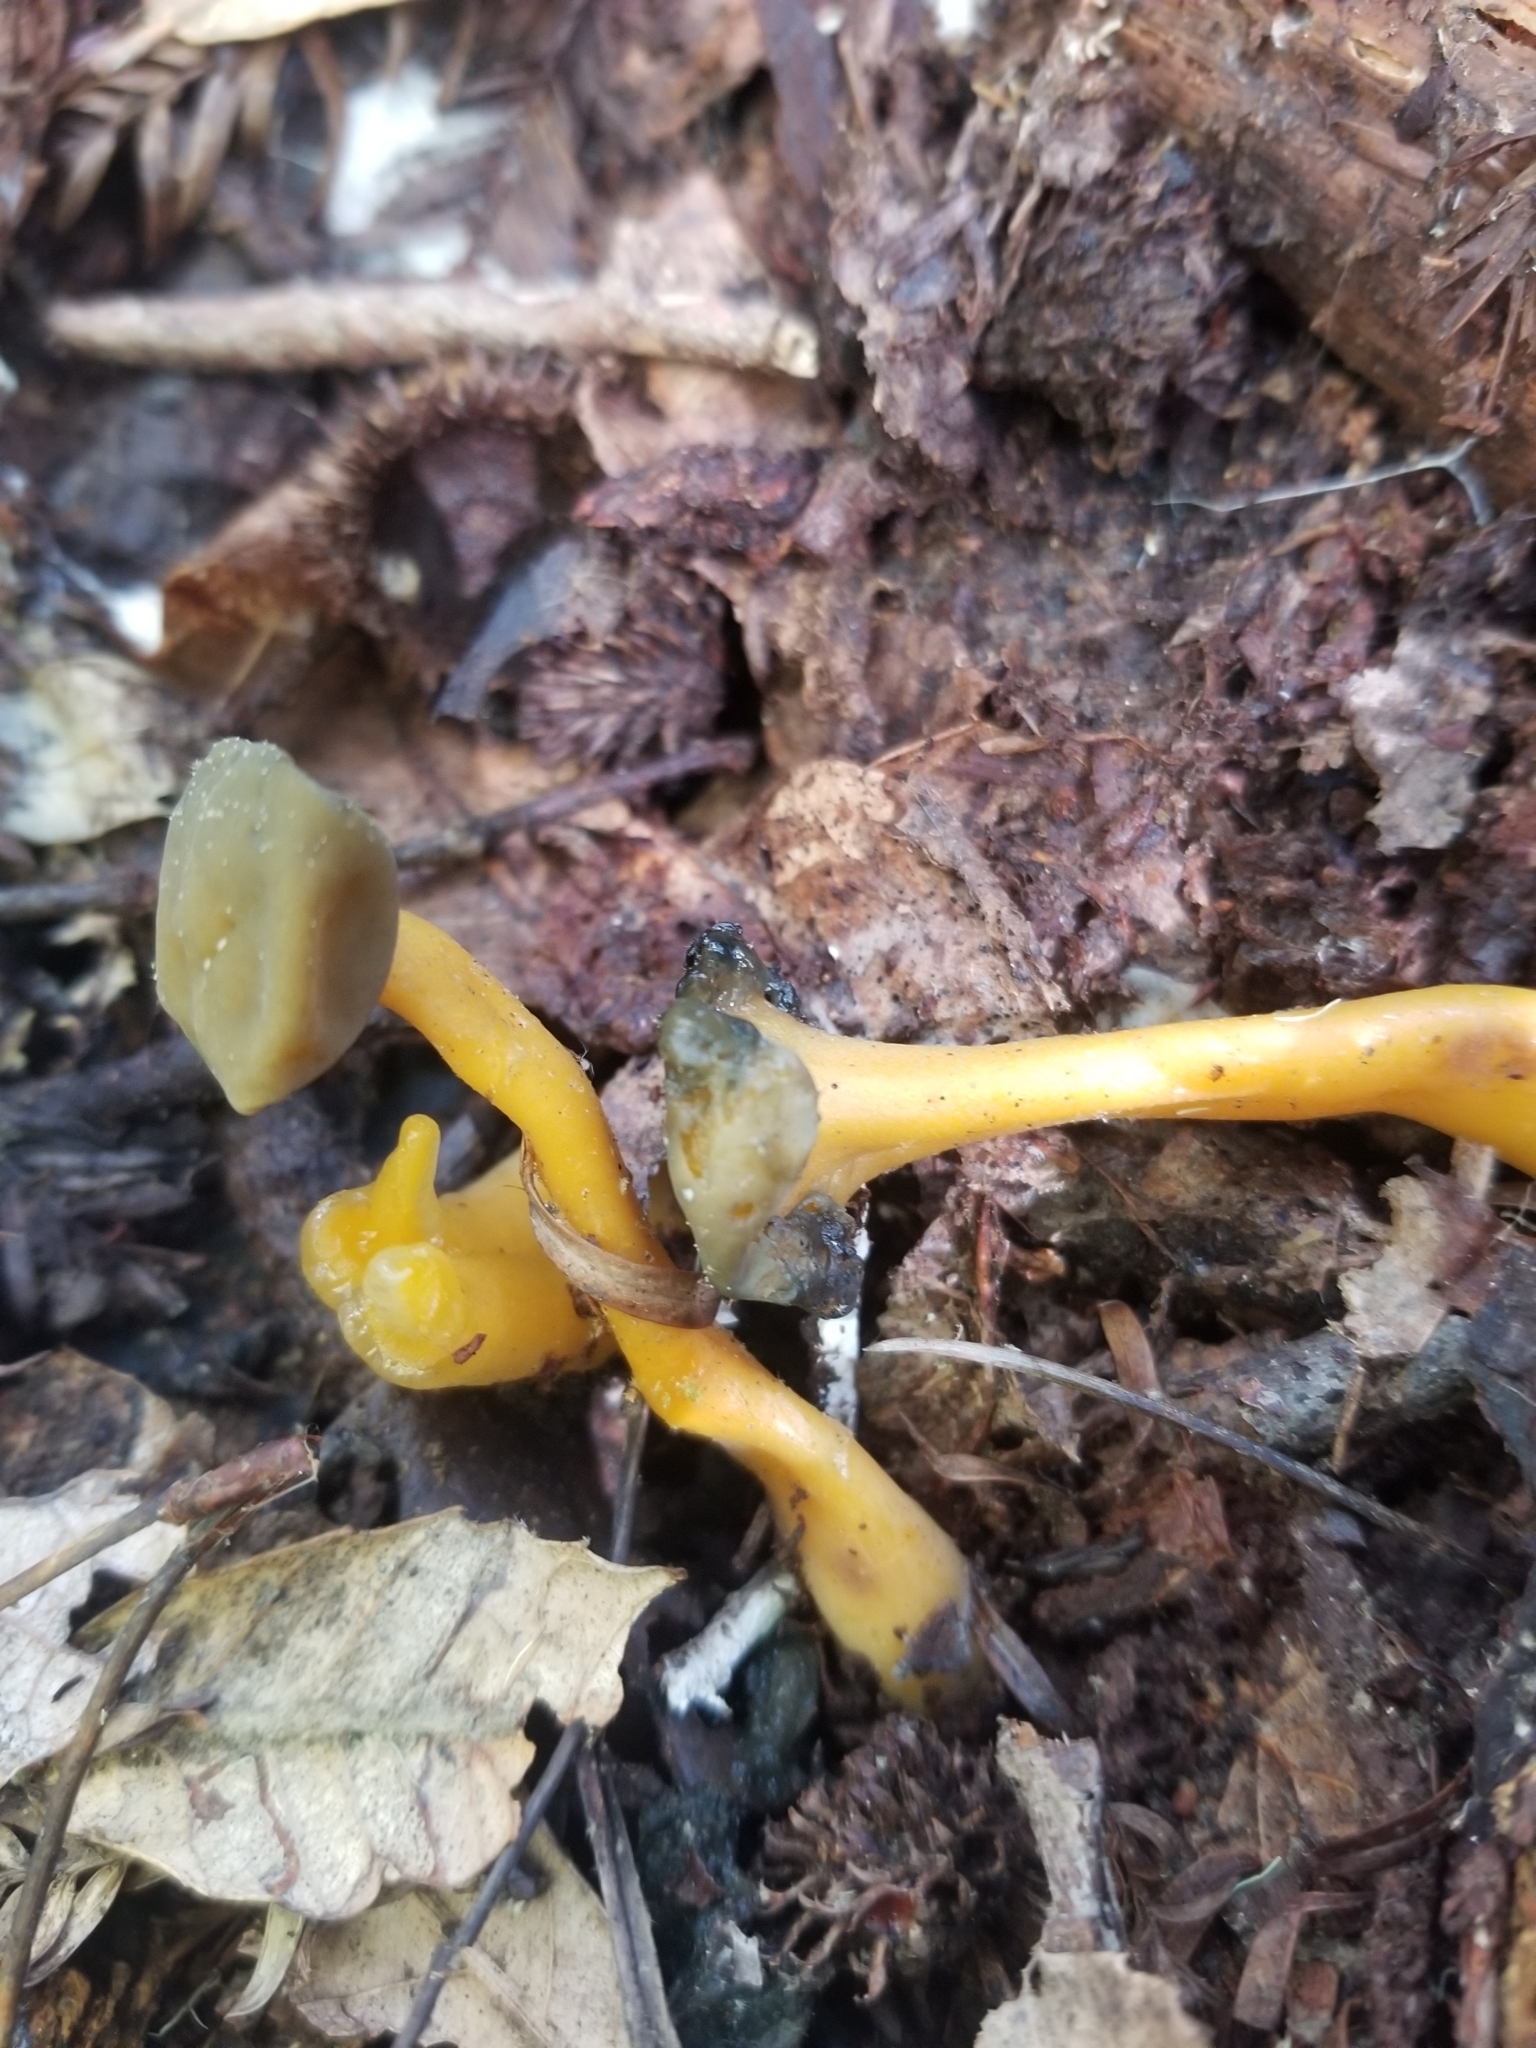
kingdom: Fungi
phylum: Ascomycota
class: Leotiomycetes
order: Leotiales
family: Leotiaceae
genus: Leotia
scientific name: Leotia lubrica
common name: Jellybaby
